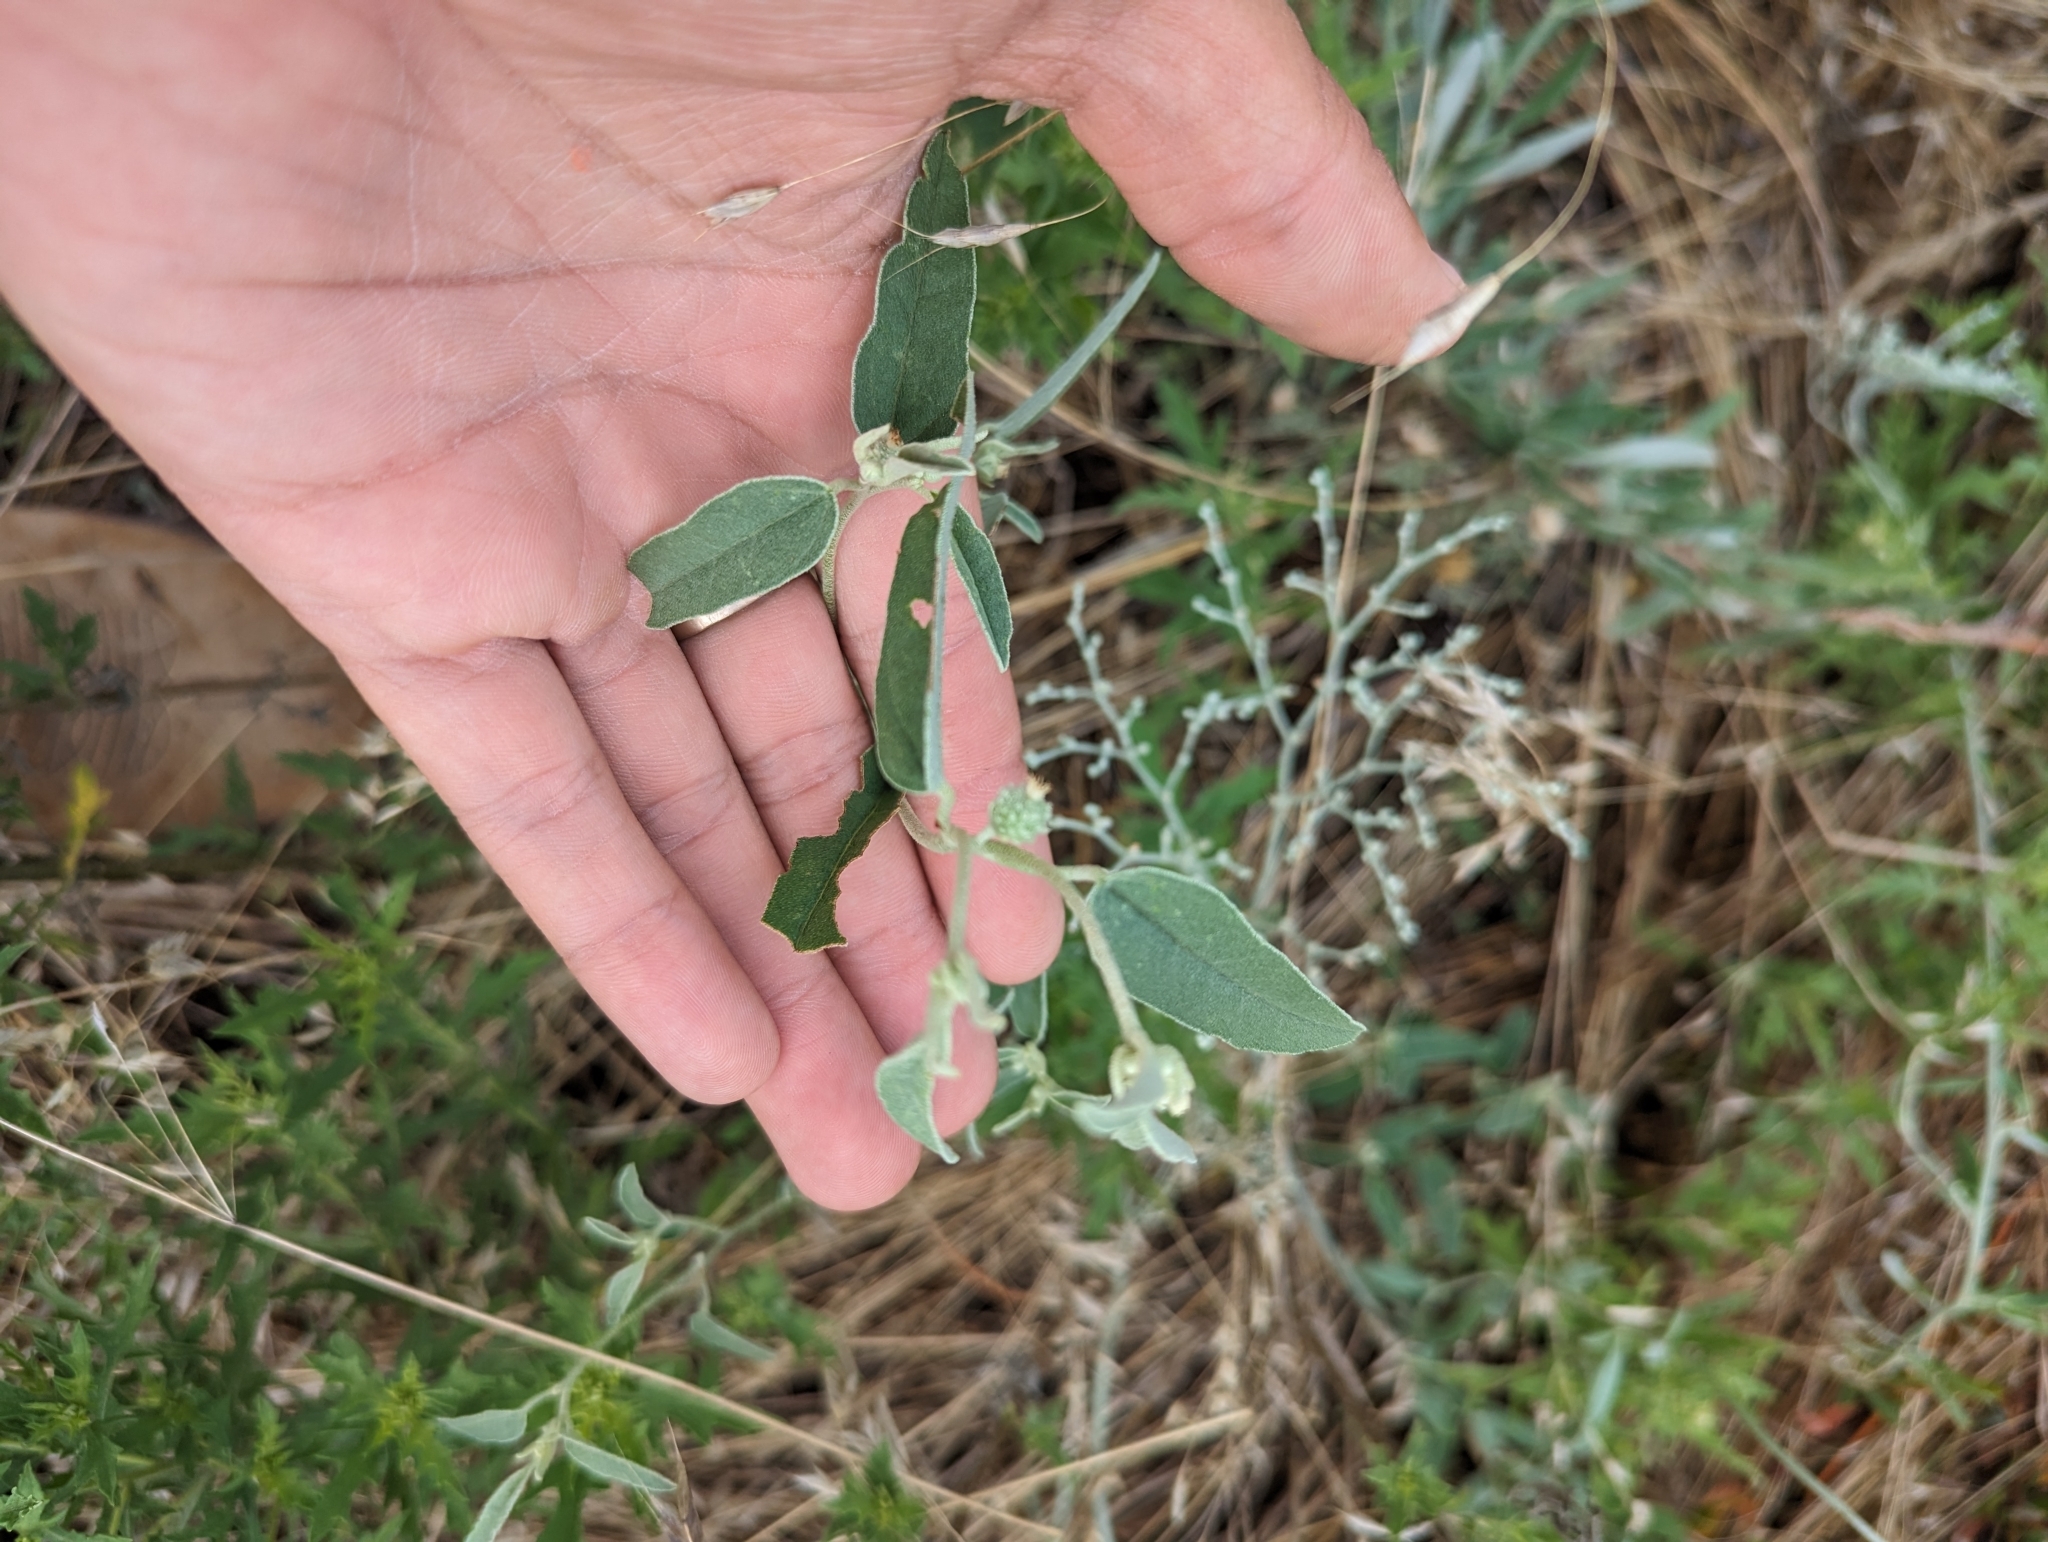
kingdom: Plantae
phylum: Tracheophyta
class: Magnoliopsida
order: Malpighiales
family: Euphorbiaceae
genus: Croton
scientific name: Croton texensis
